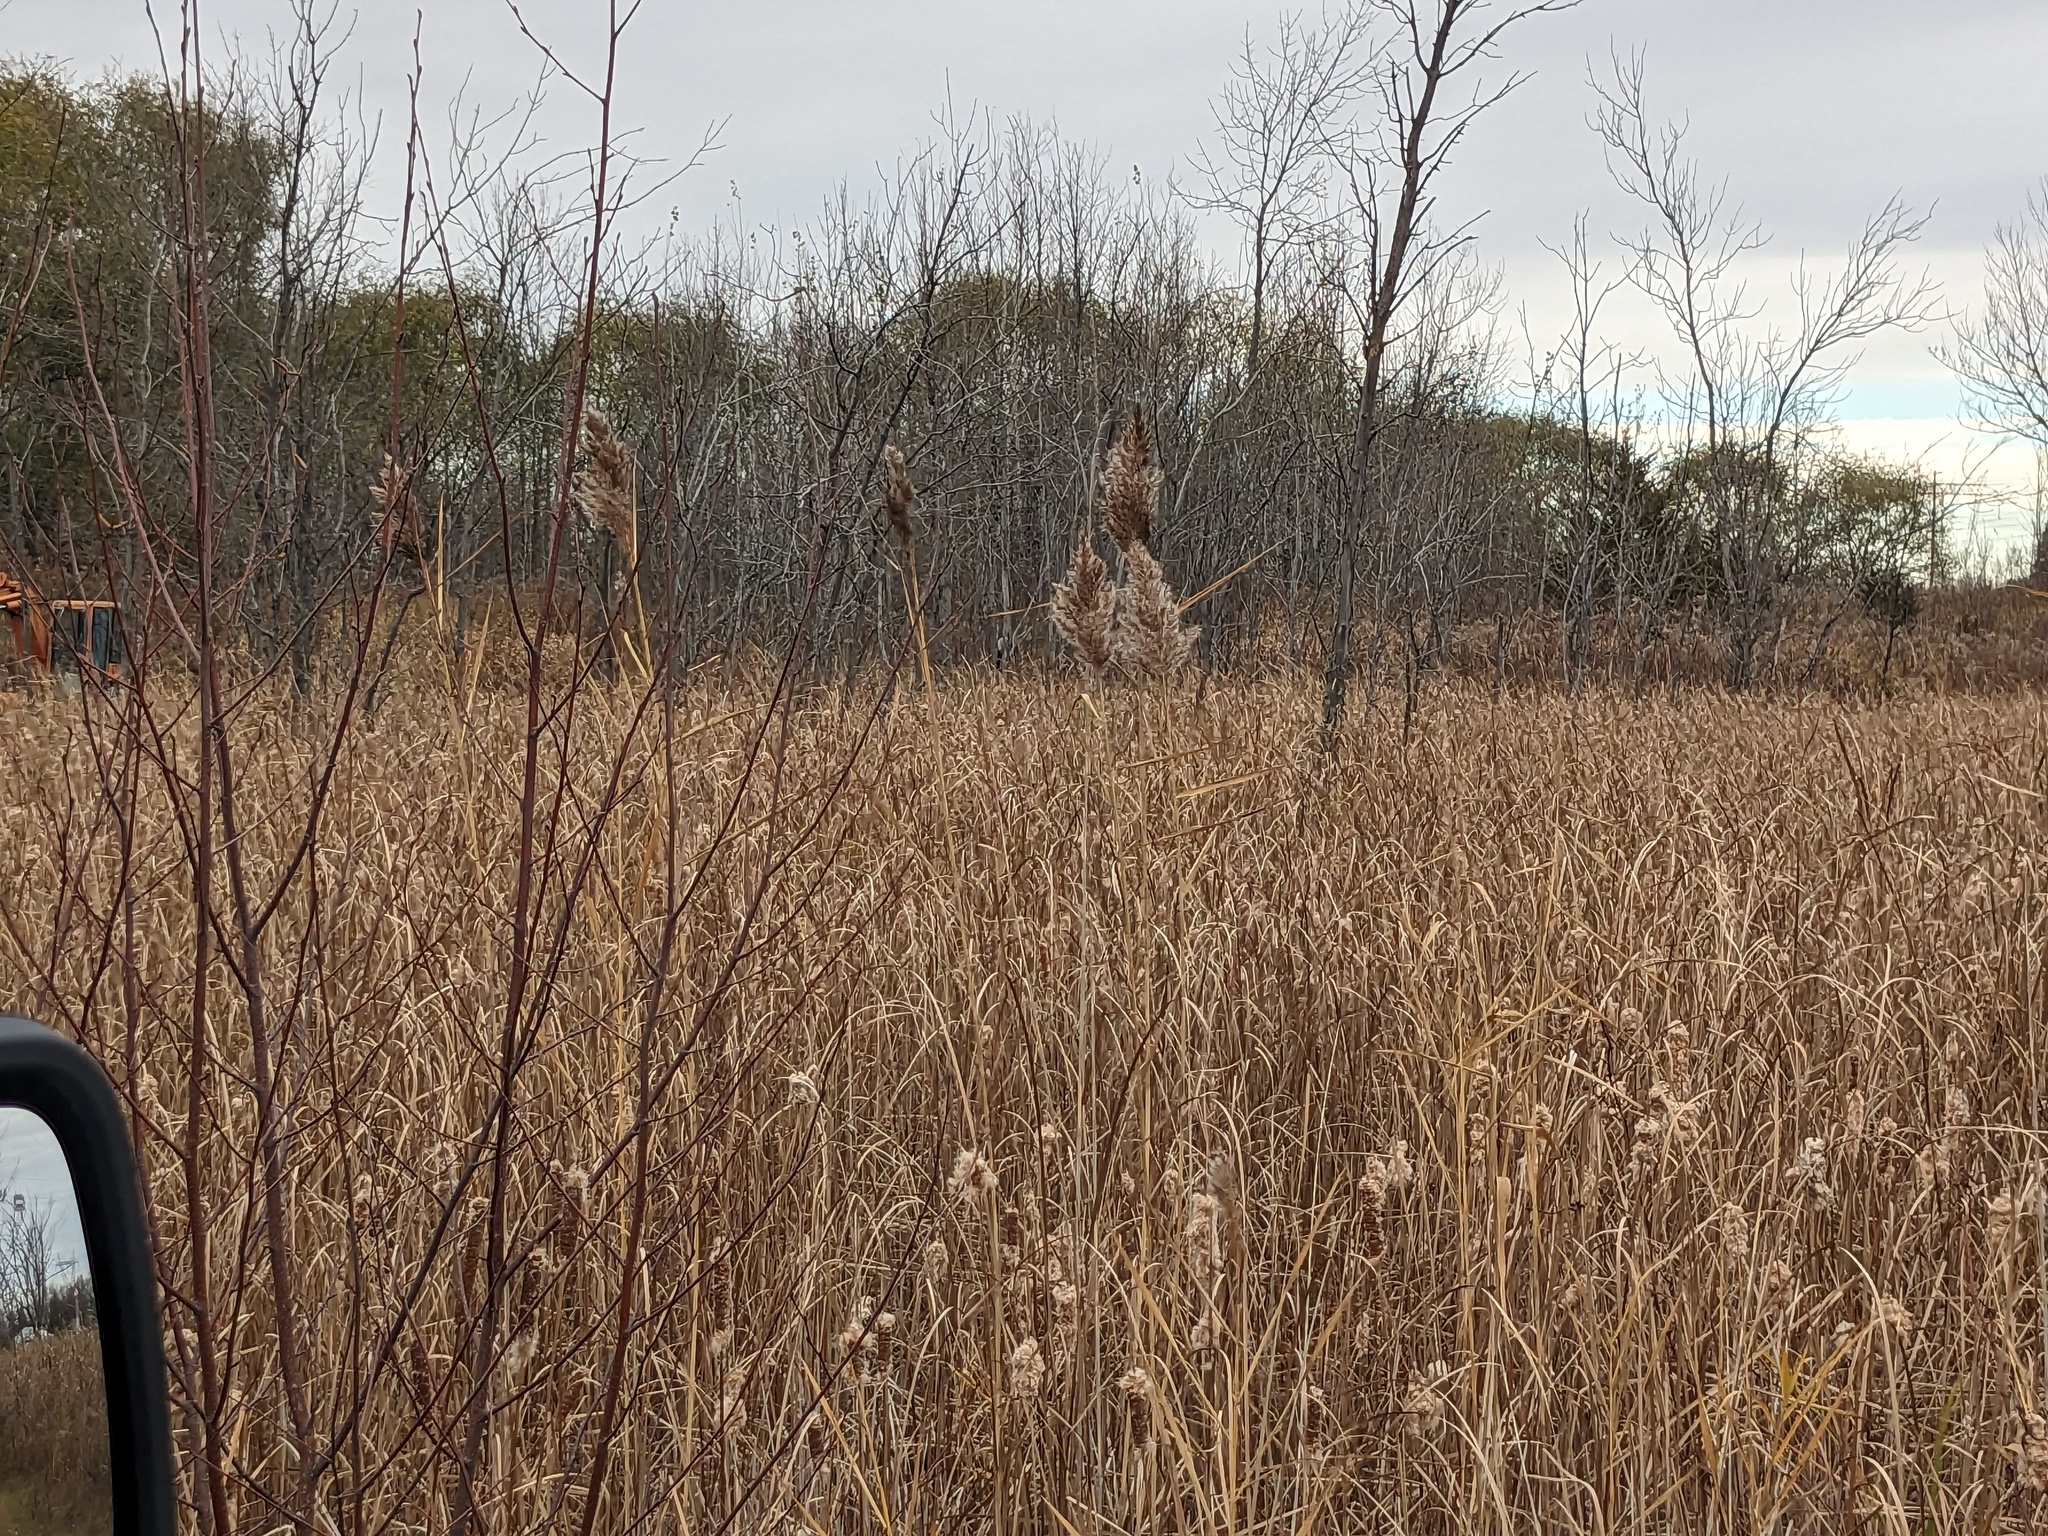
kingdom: Plantae
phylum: Tracheophyta
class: Liliopsida
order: Poales
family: Poaceae
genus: Phragmites
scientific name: Phragmites australis
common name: Common reed
